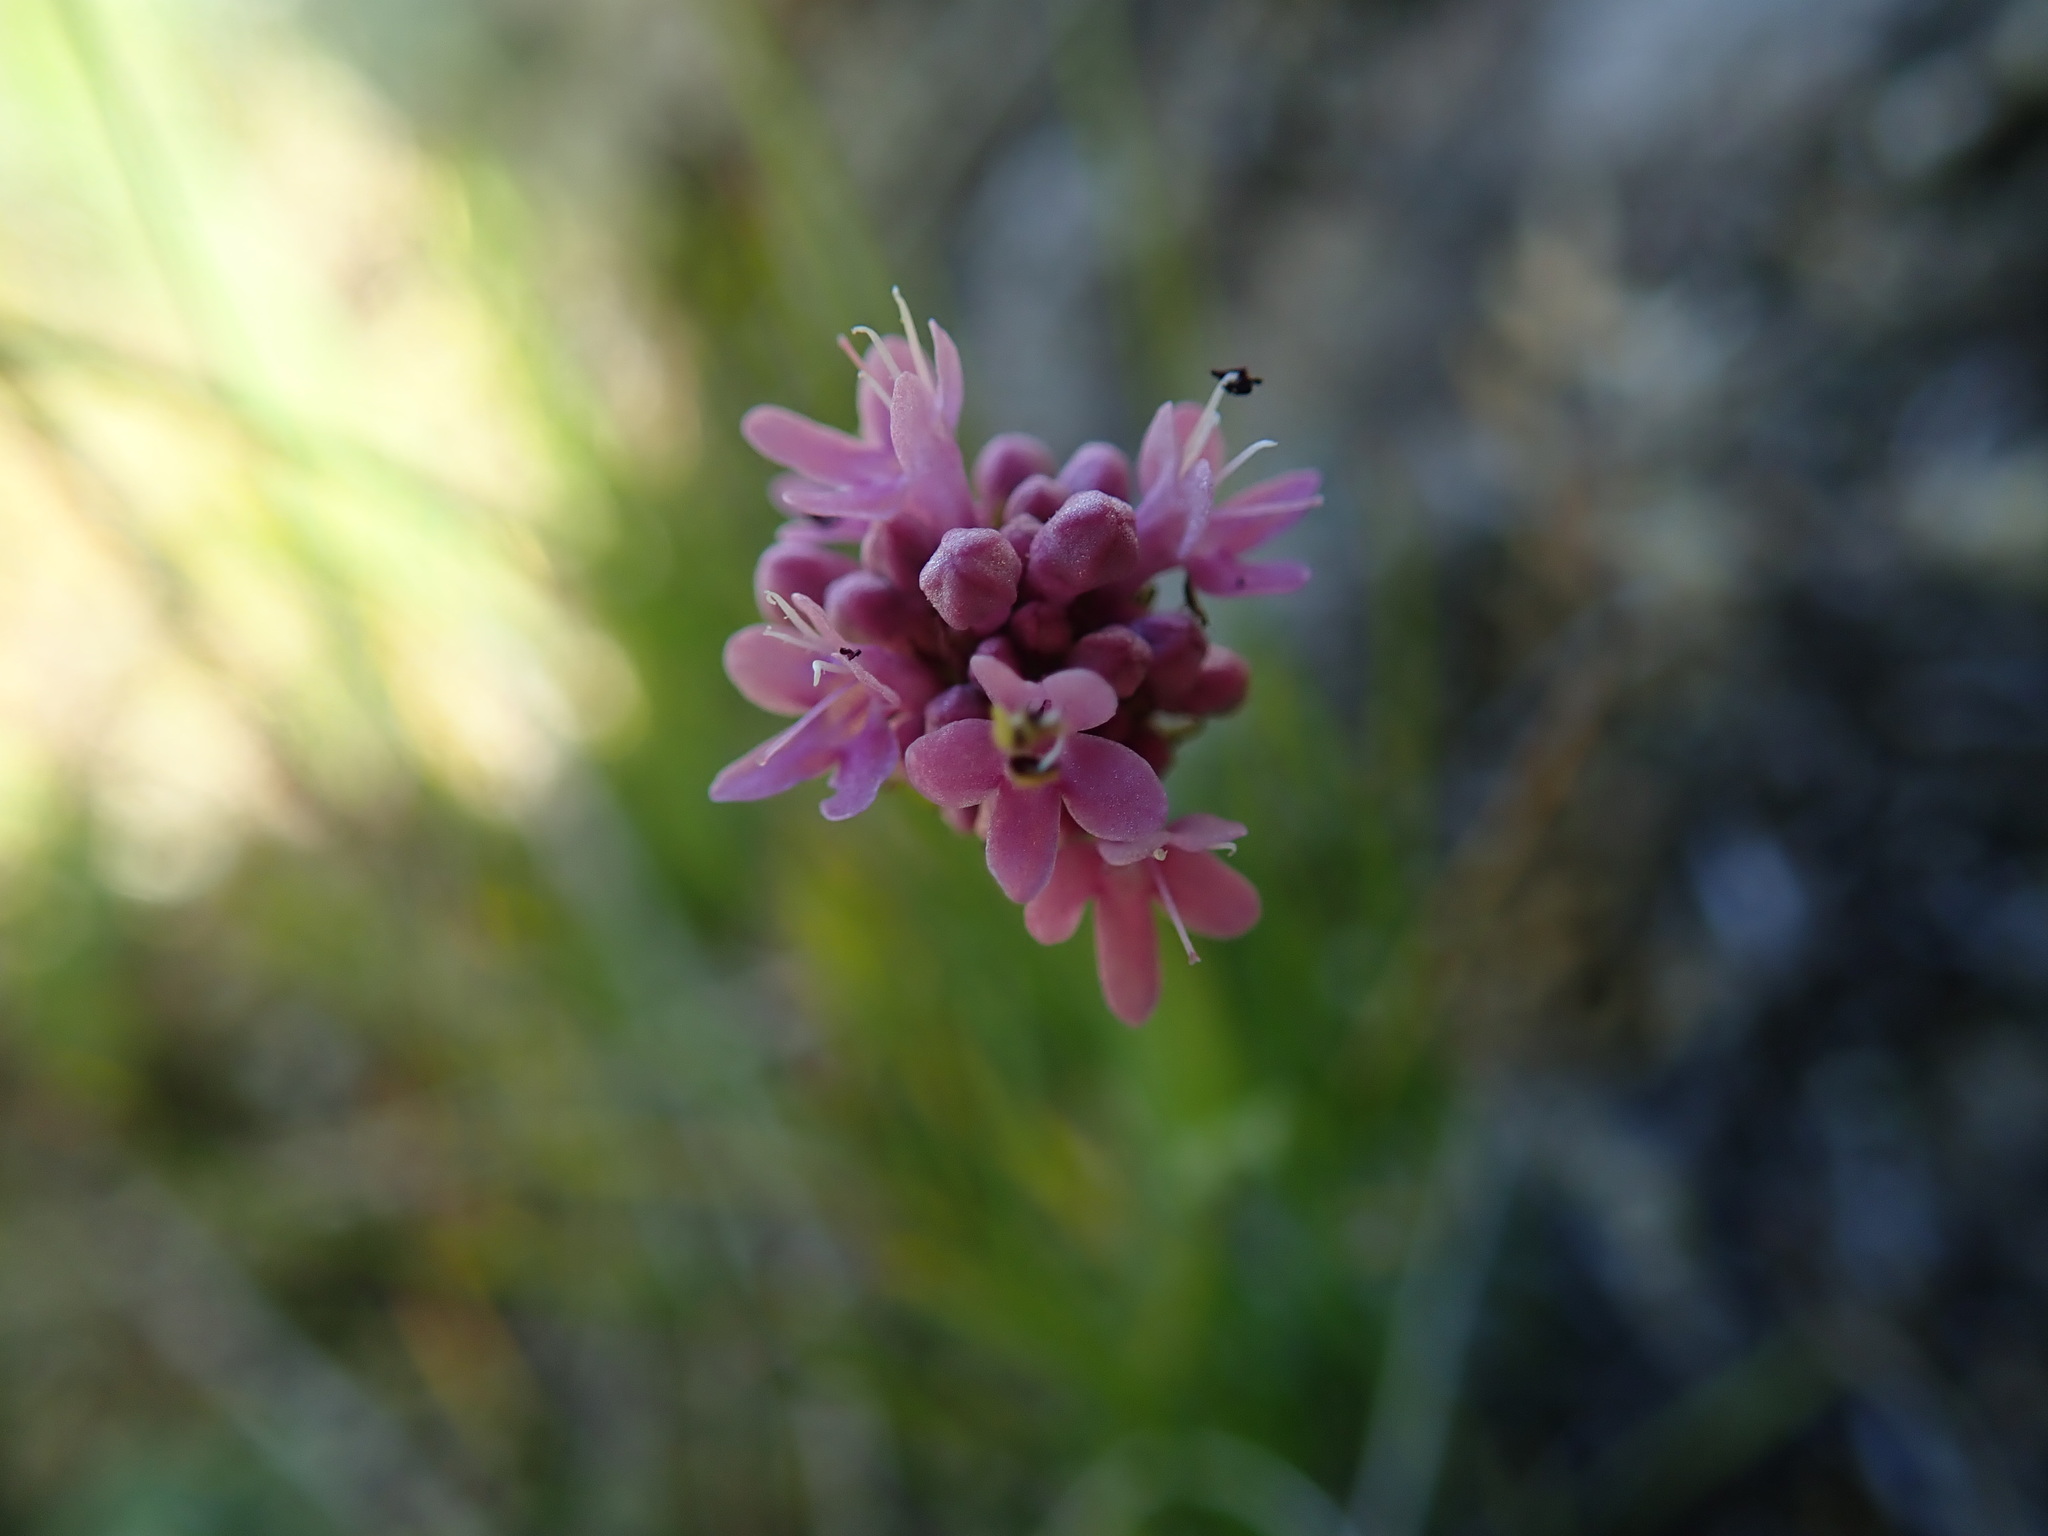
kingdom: Plantae
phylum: Tracheophyta
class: Magnoliopsida
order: Dipsacales
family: Caprifoliaceae
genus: Plectritis
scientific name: Plectritis congesta
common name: Pink plectritis
